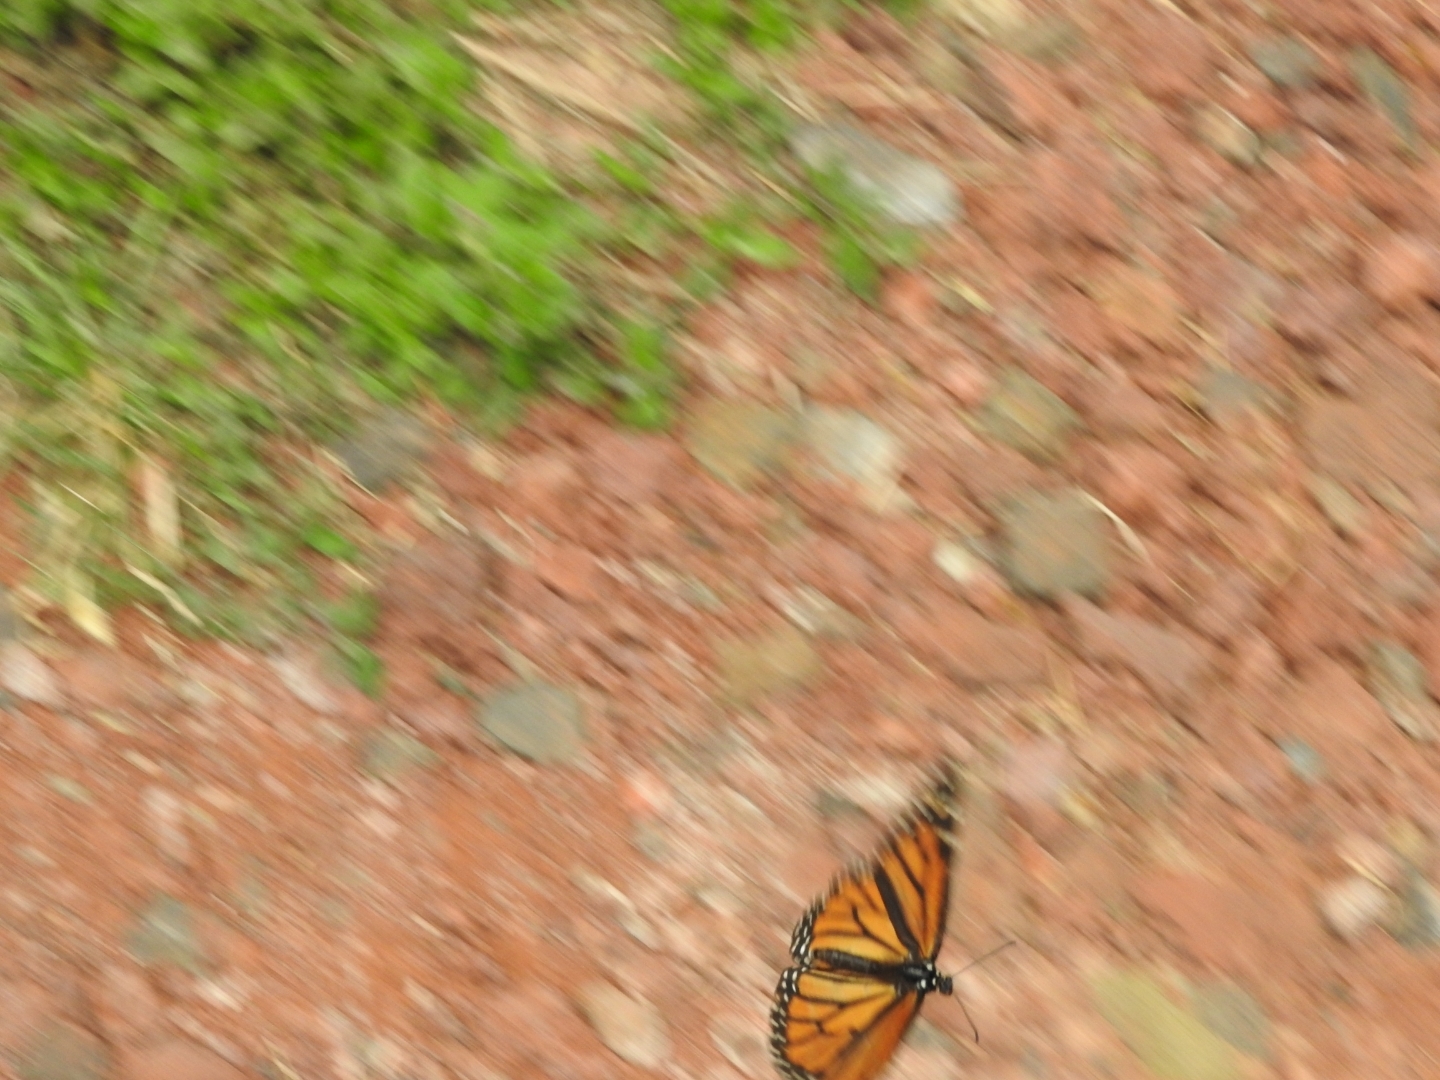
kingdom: Animalia
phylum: Arthropoda
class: Insecta
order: Lepidoptera
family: Nymphalidae
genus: Danaus
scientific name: Danaus plexippus
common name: Monarch
